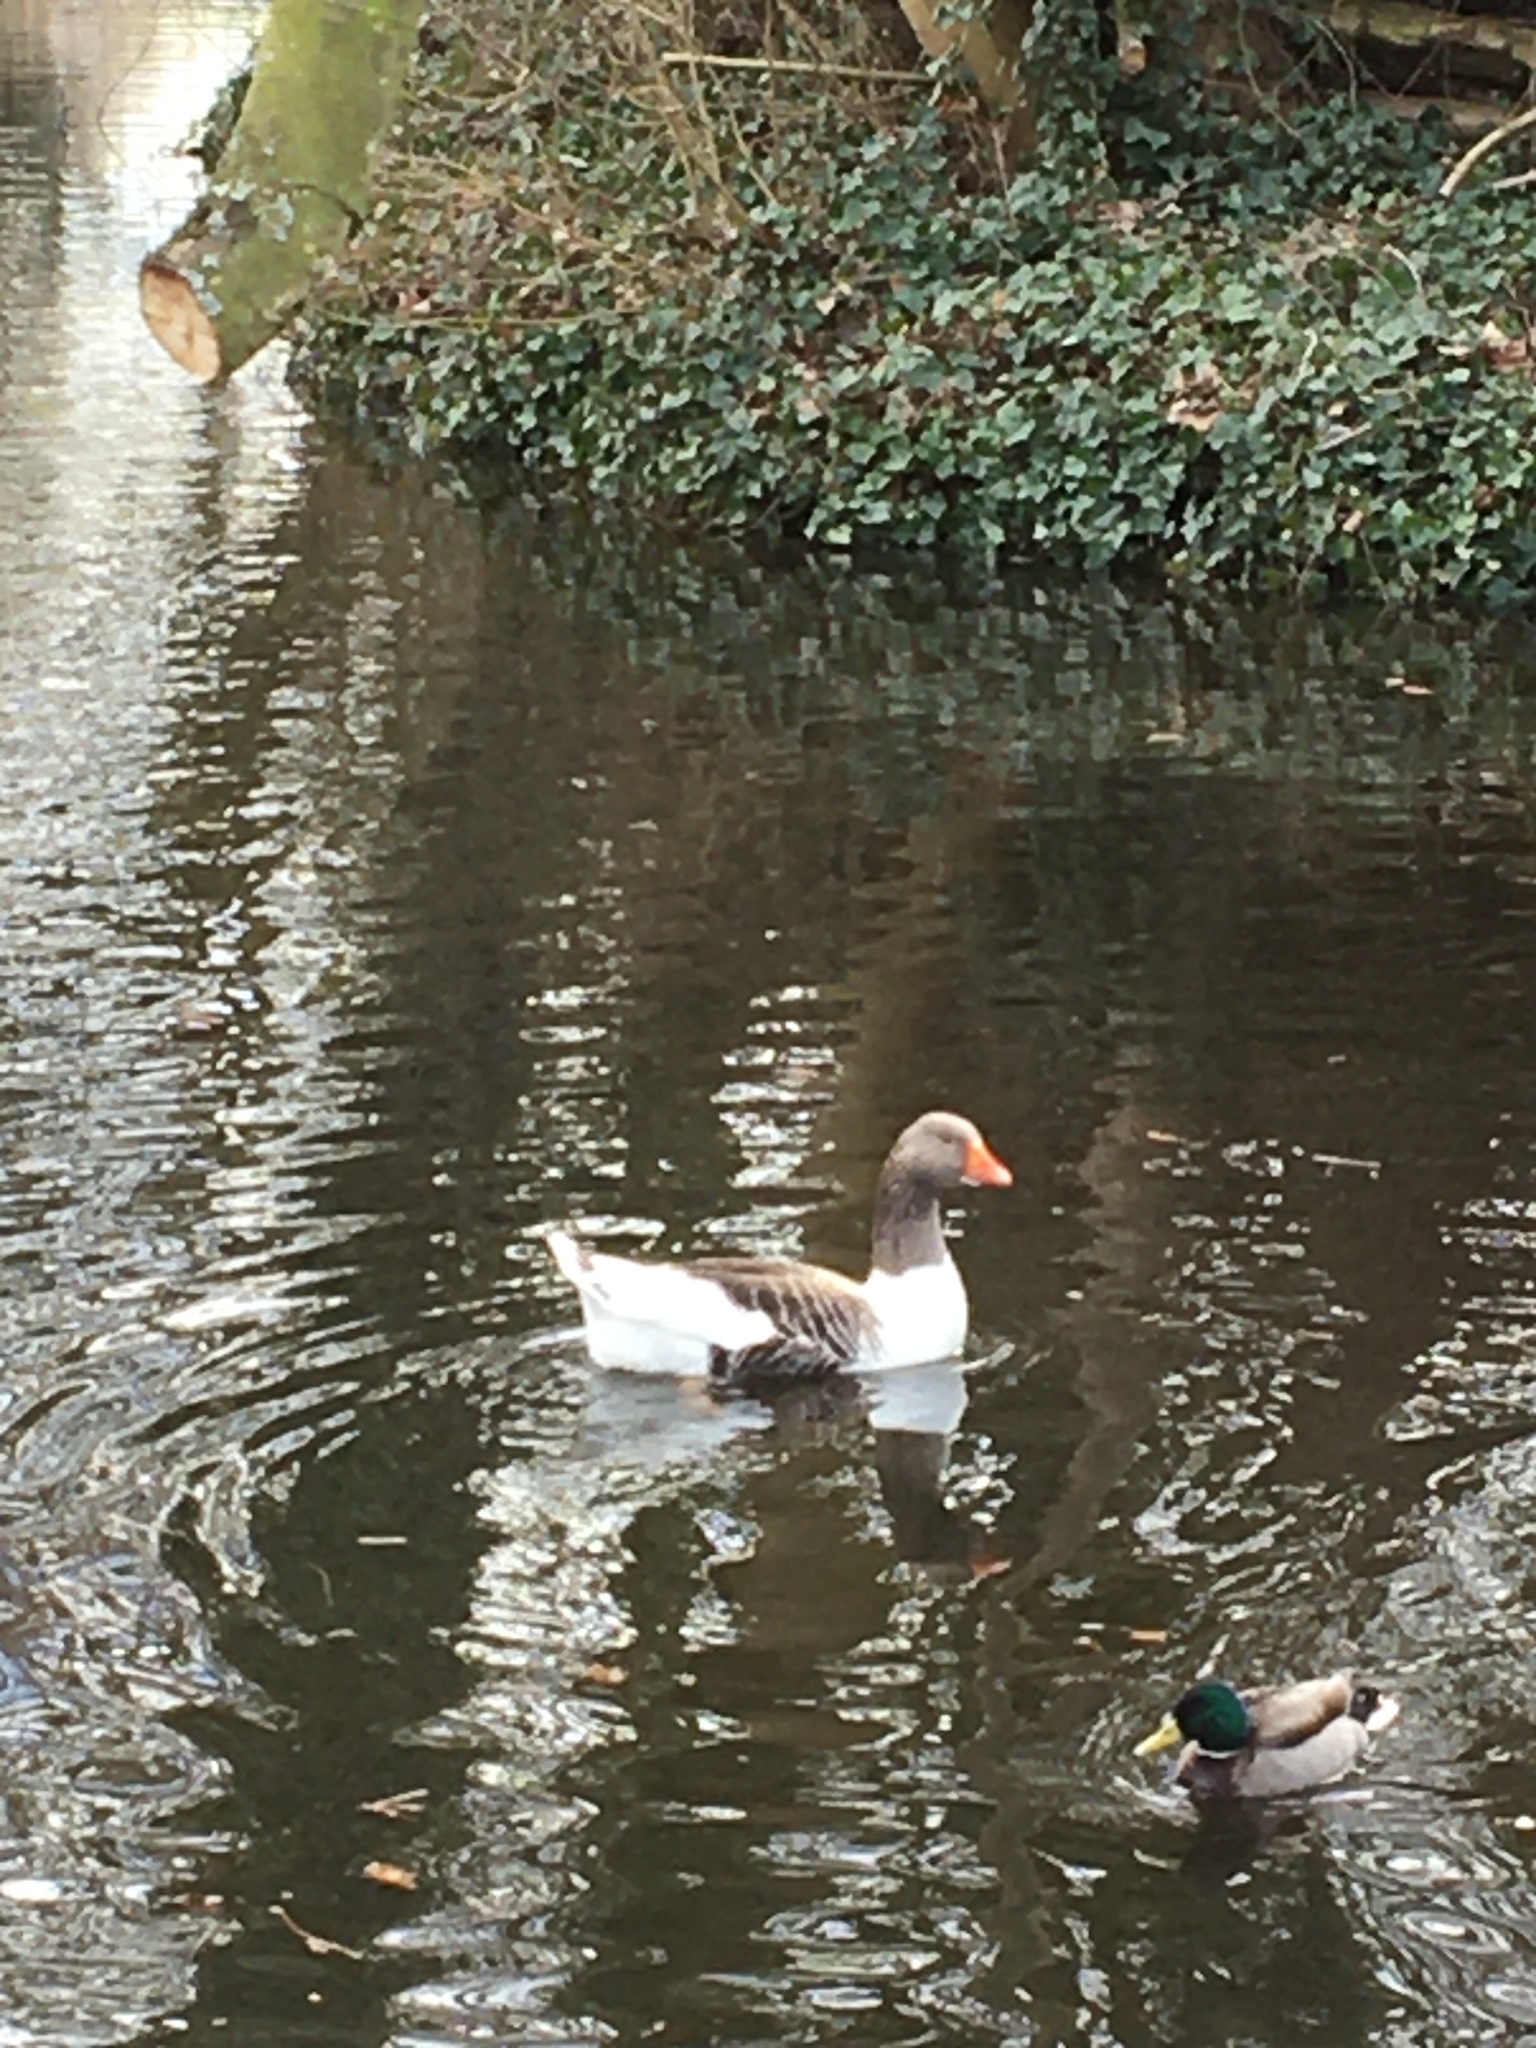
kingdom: Animalia
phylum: Chordata
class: Aves
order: Anseriformes
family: Anatidae
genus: Anser
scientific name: Anser anser
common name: Greylag goose
